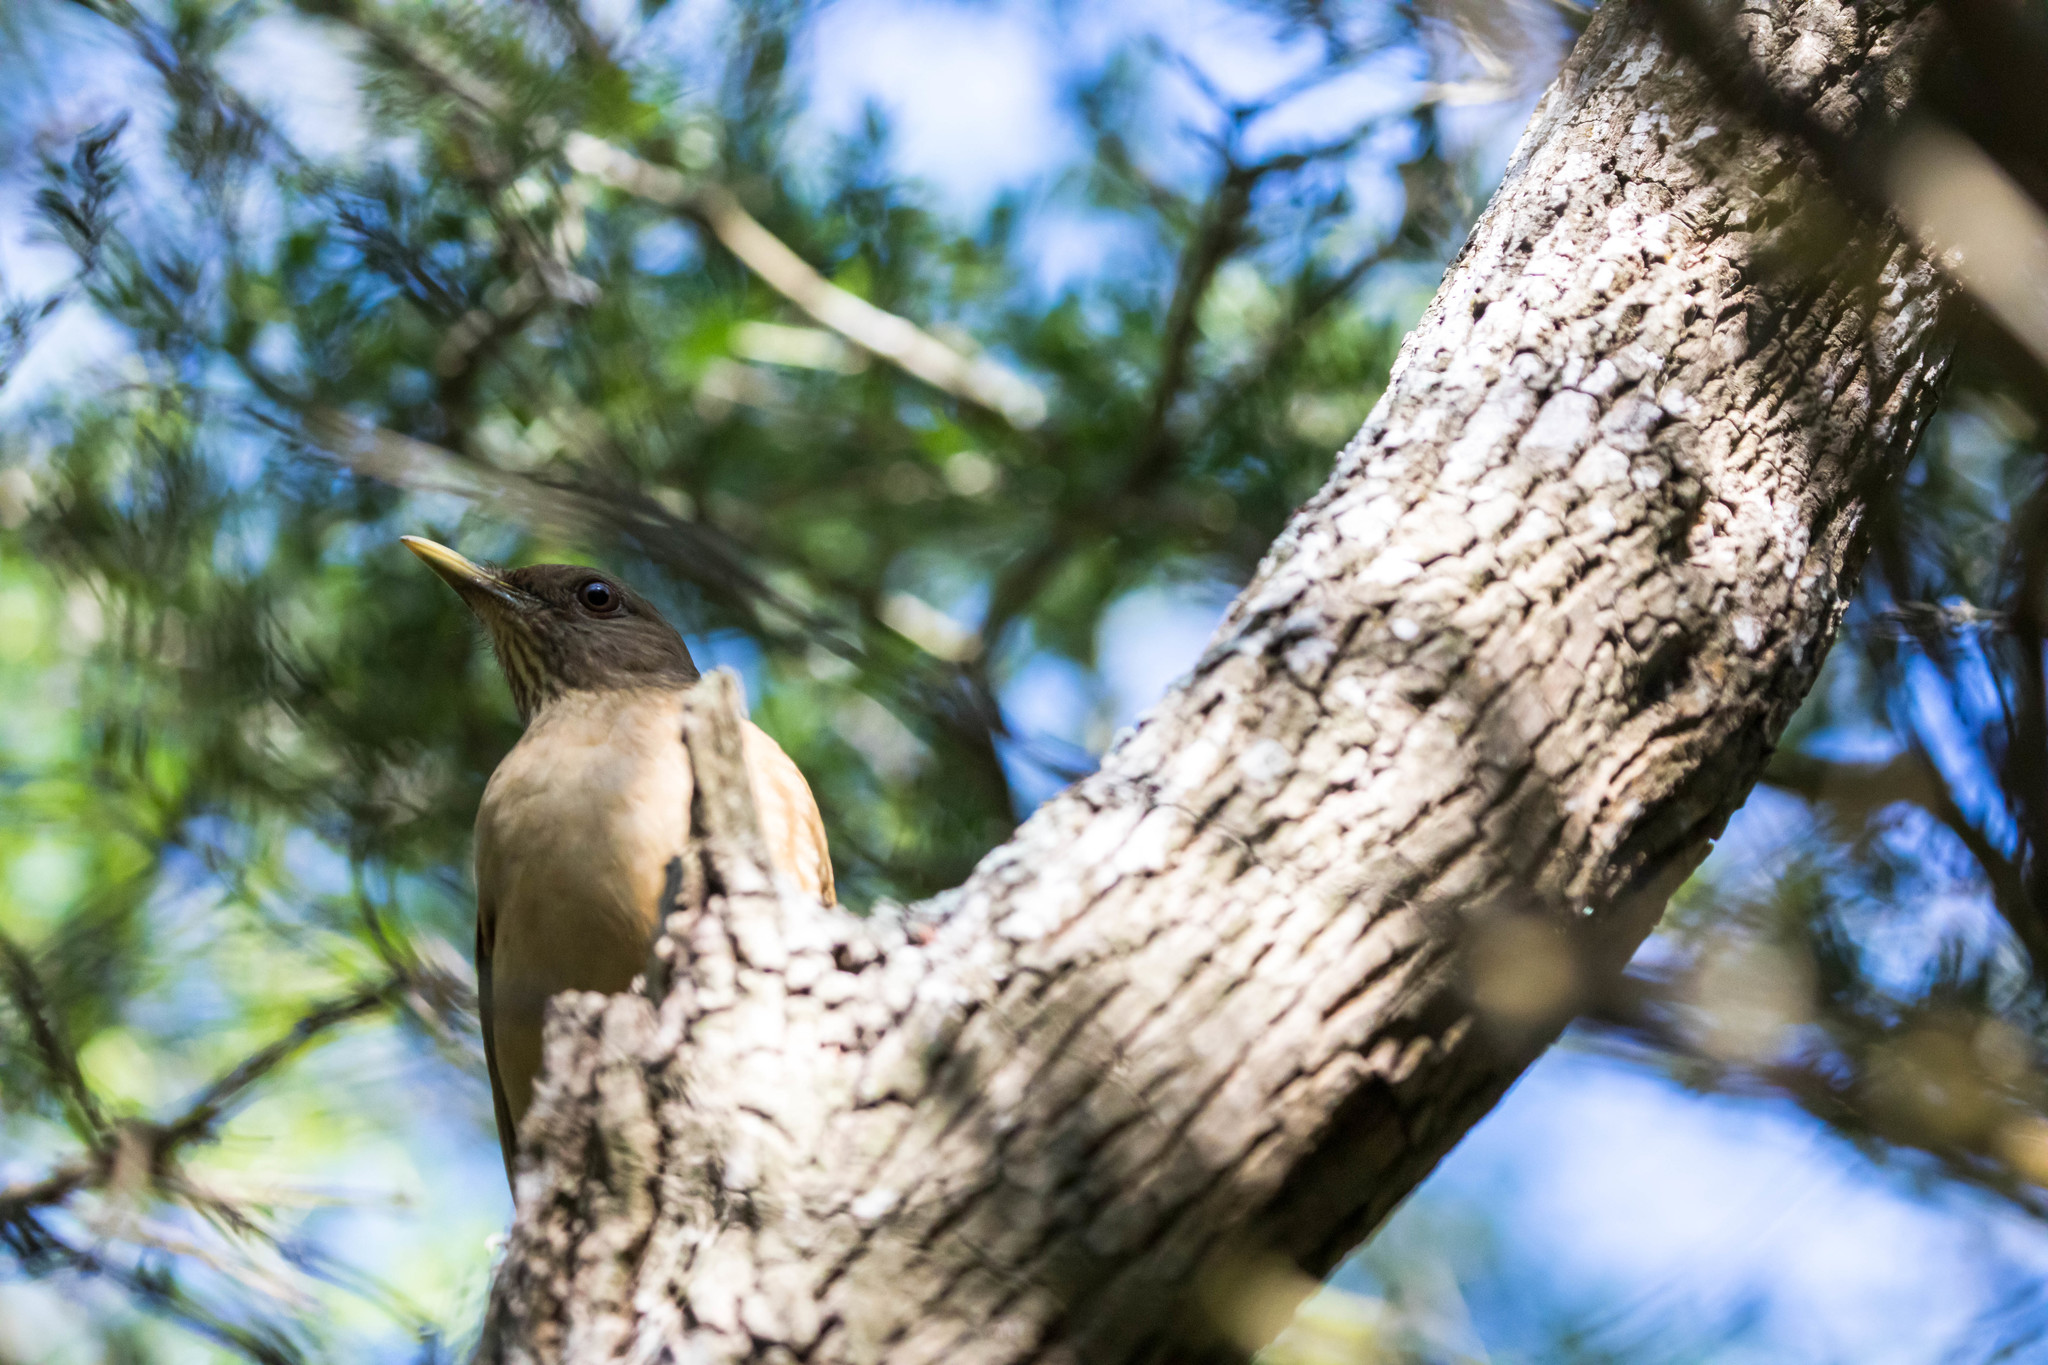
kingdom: Animalia
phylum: Chordata
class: Aves
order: Passeriformes
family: Turdidae
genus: Turdus
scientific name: Turdus grayi
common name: Clay-colored thrush
